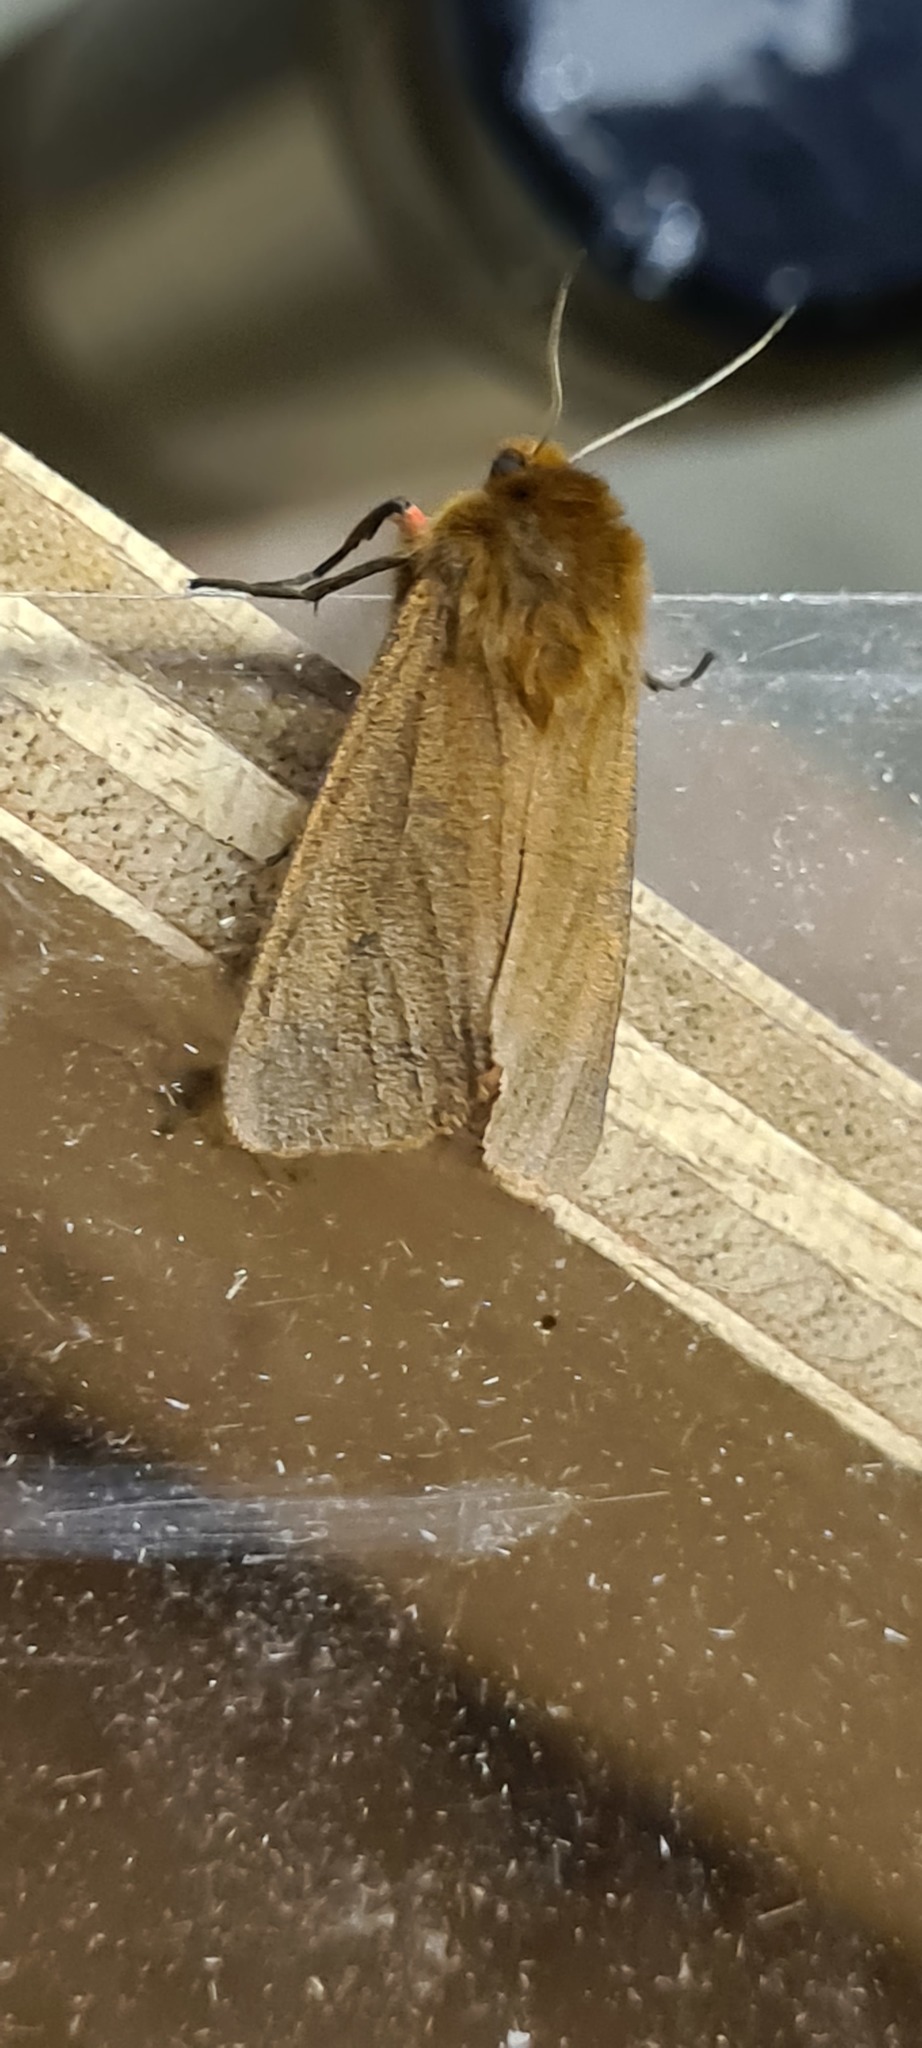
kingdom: Animalia
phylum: Arthropoda
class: Insecta
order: Lepidoptera
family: Erebidae
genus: Phragmatobia
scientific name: Phragmatobia fuliginosa
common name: Ruby tiger
